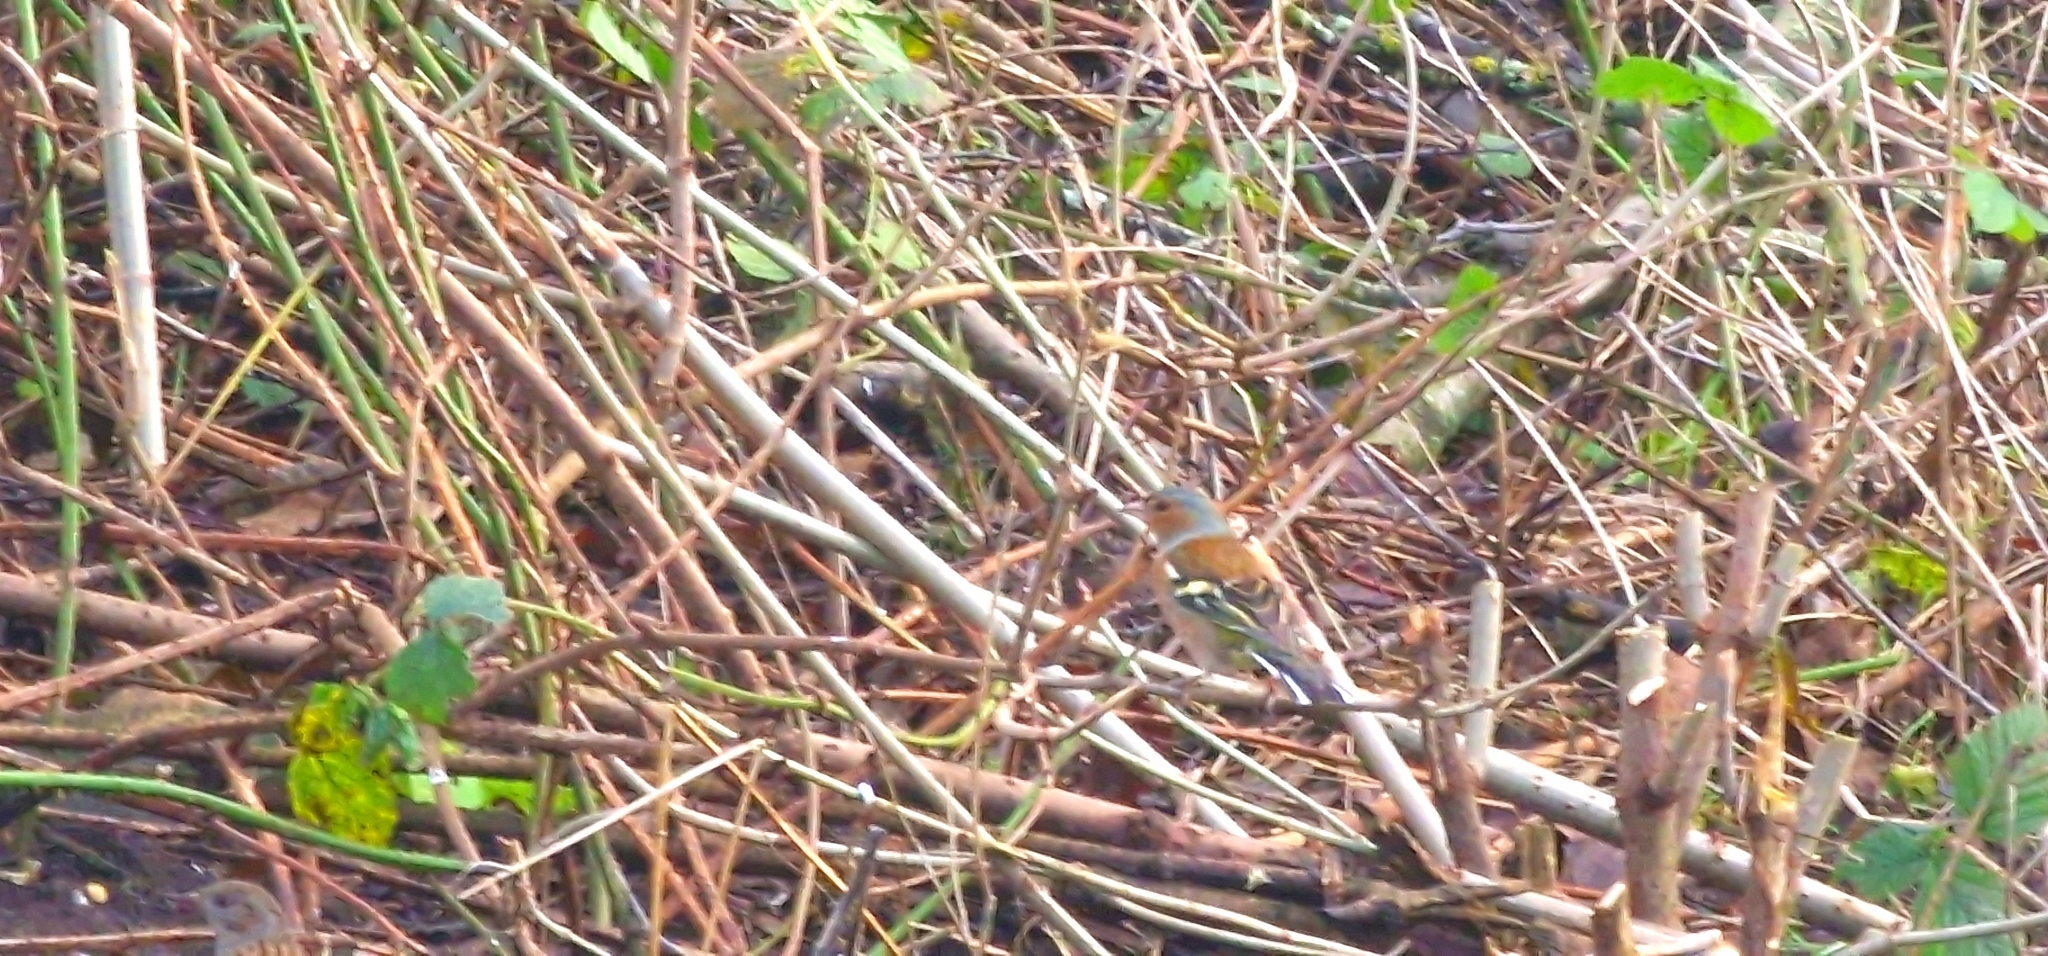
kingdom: Animalia
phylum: Chordata
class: Aves
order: Passeriformes
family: Fringillidae
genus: Fringilla
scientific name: Fringilla coelebs
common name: Common chaffinch
